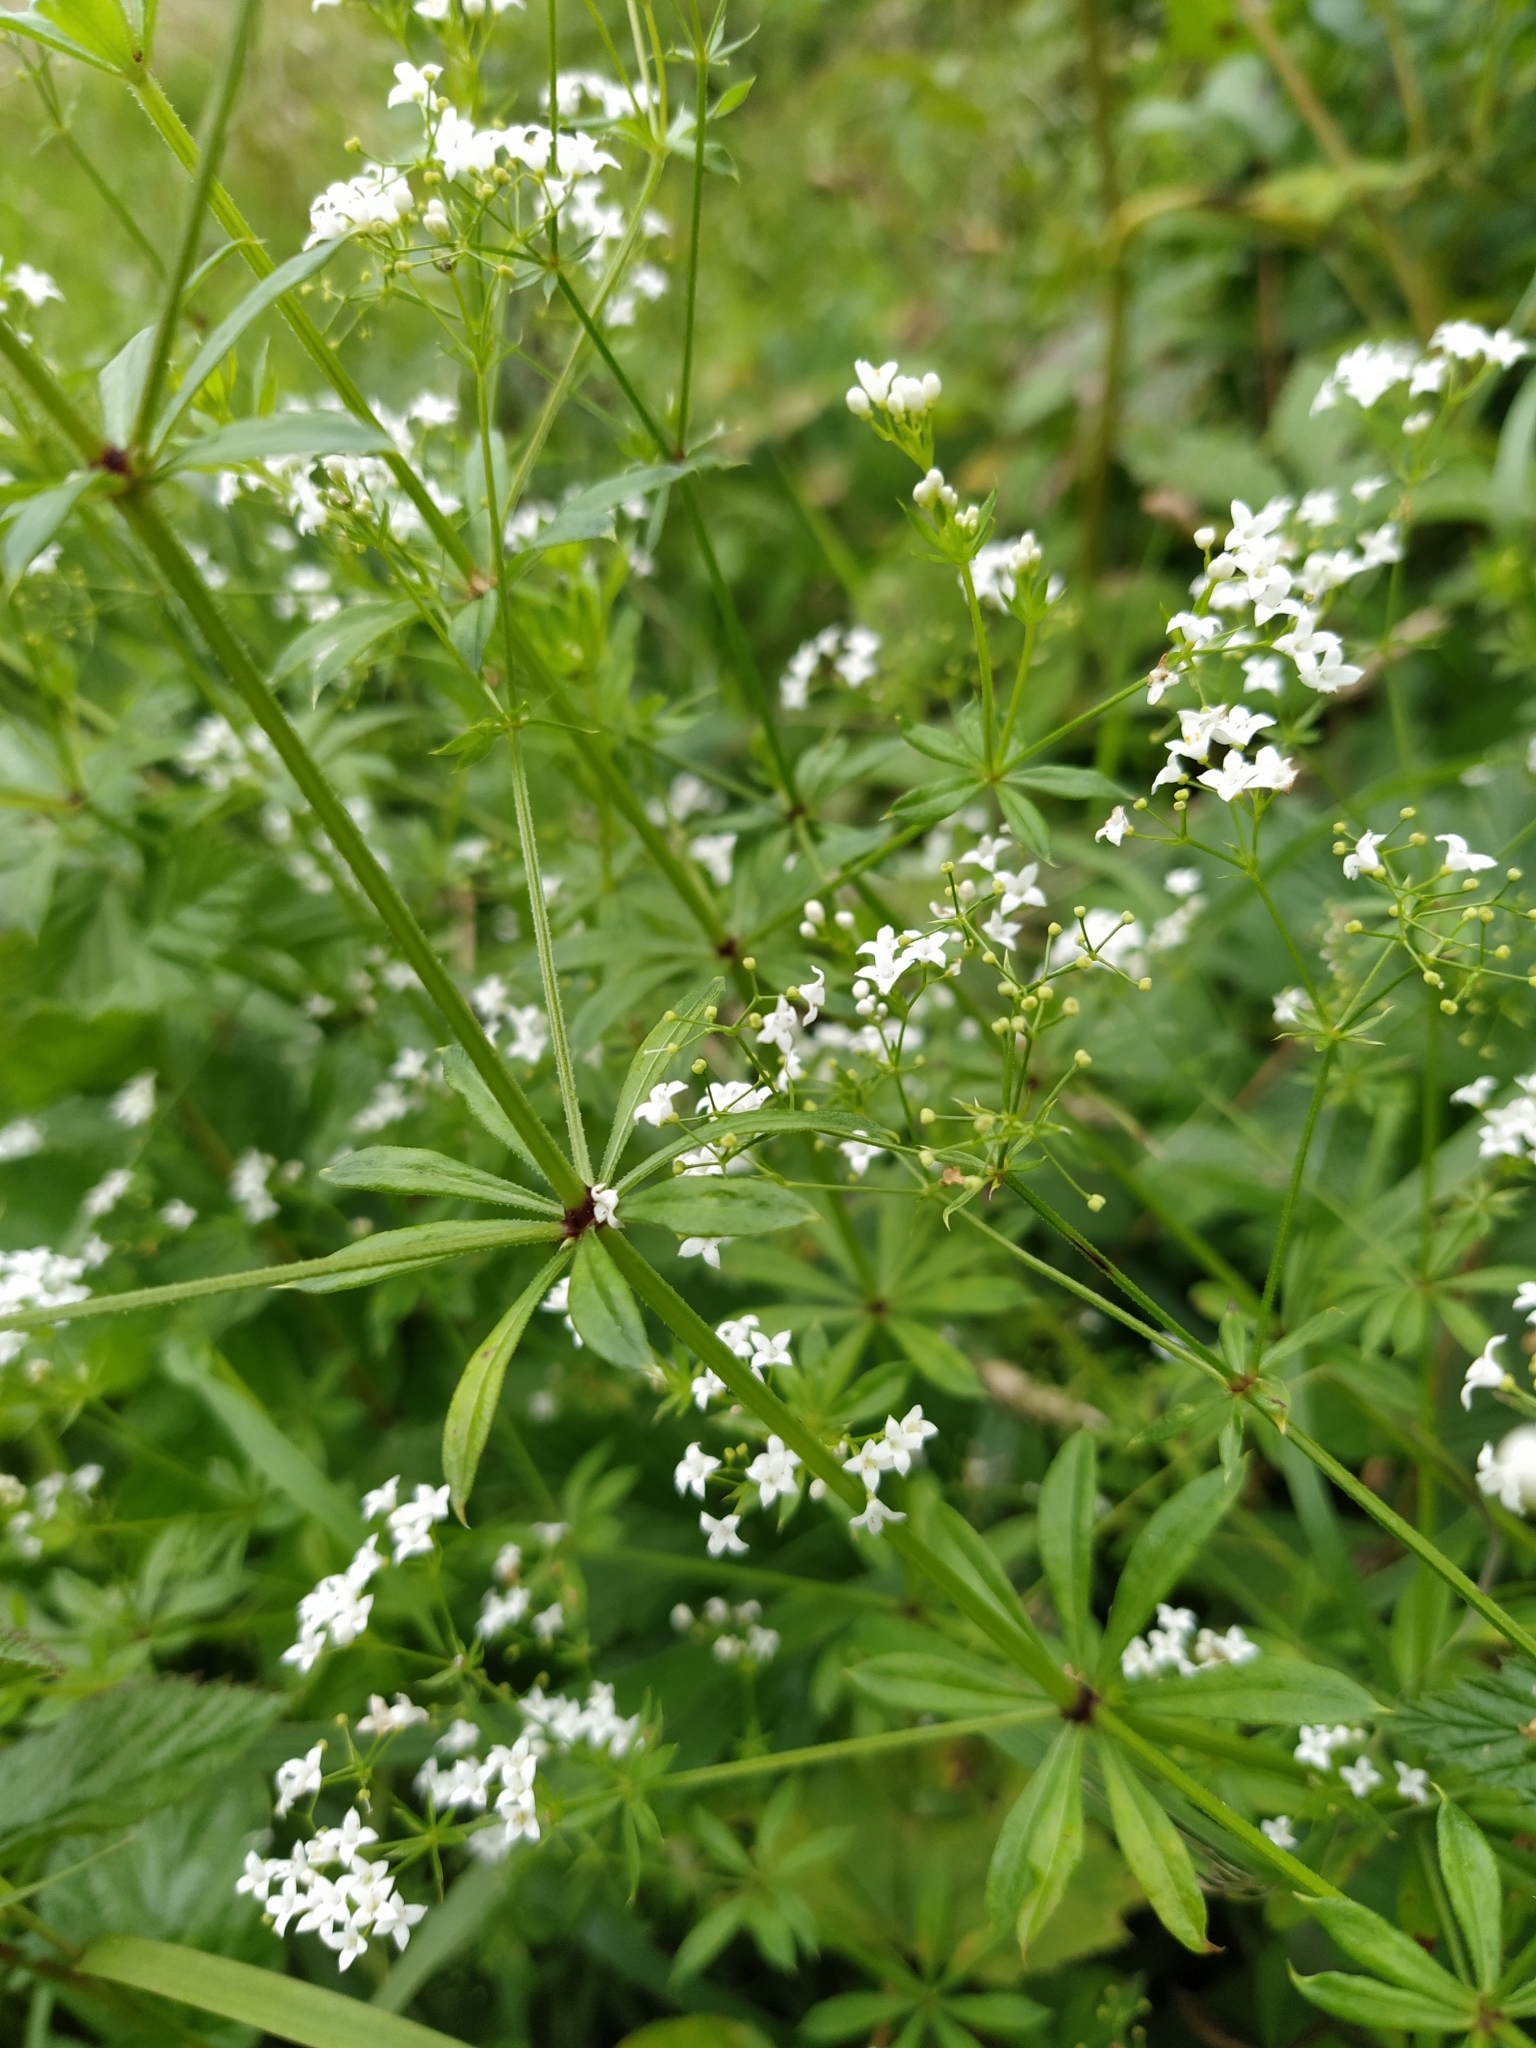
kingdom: Plantae
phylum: Tracheophyta
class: Magnoliopsida
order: Gentianales
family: Rubiaceae
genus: Galium
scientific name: Galium rivale
